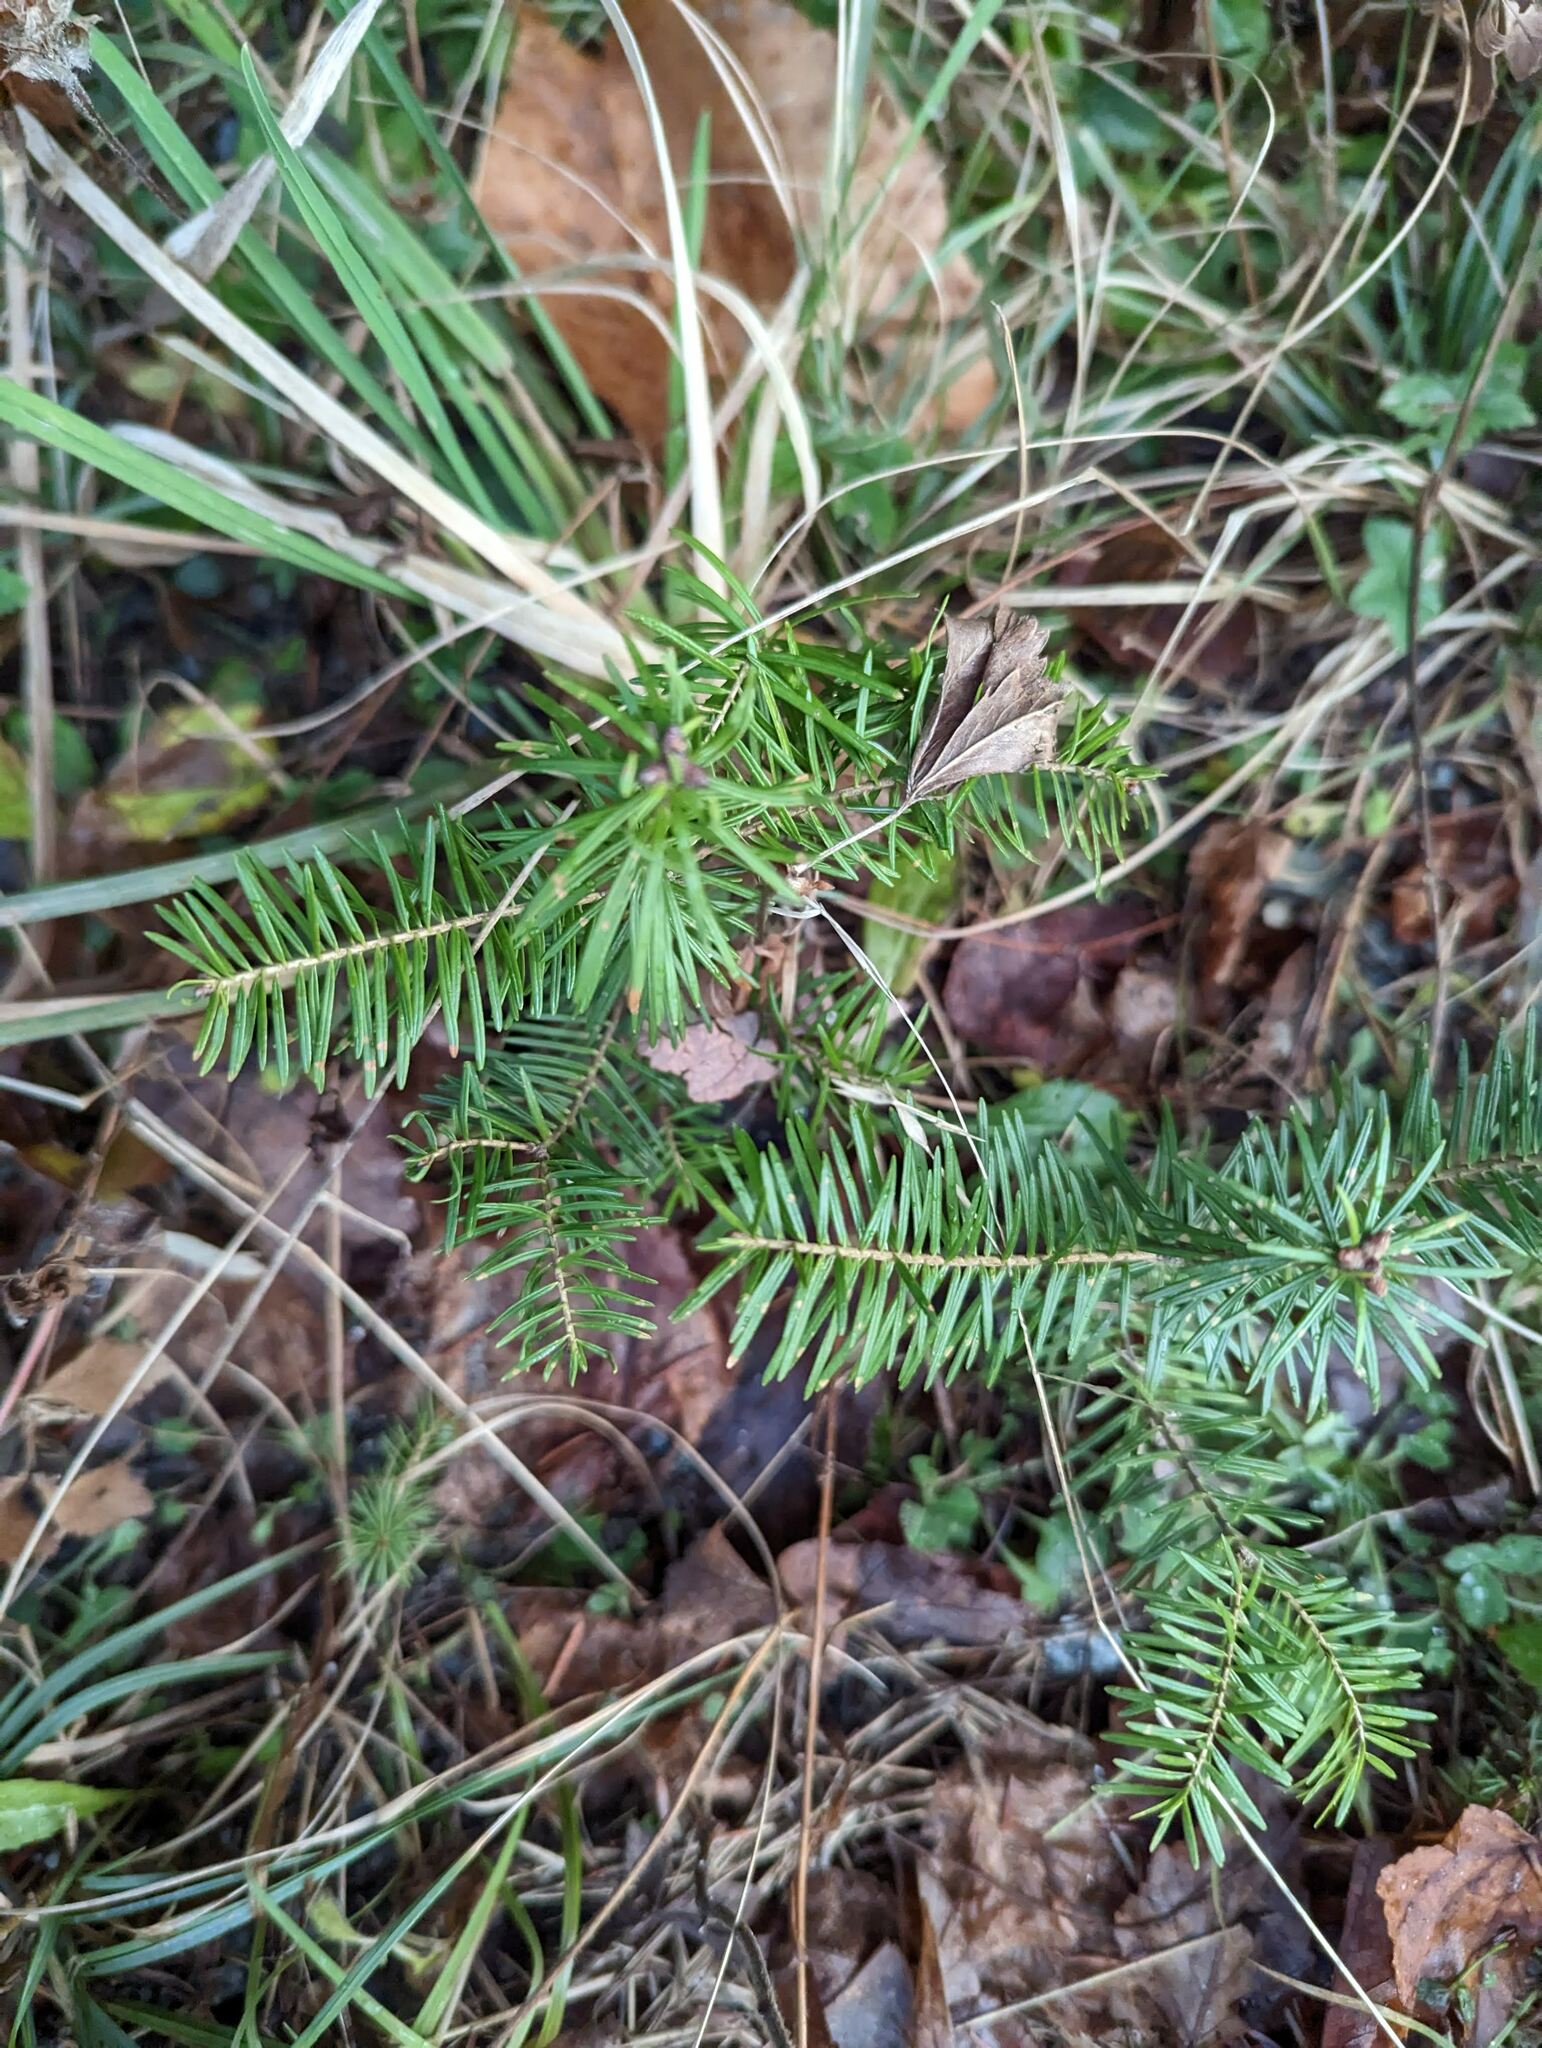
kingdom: Plantae
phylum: Tracheophyta
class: Pinopsida
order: Pinales
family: Pinaceae
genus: Abies
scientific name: Abies balsamea
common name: Balsam fir
